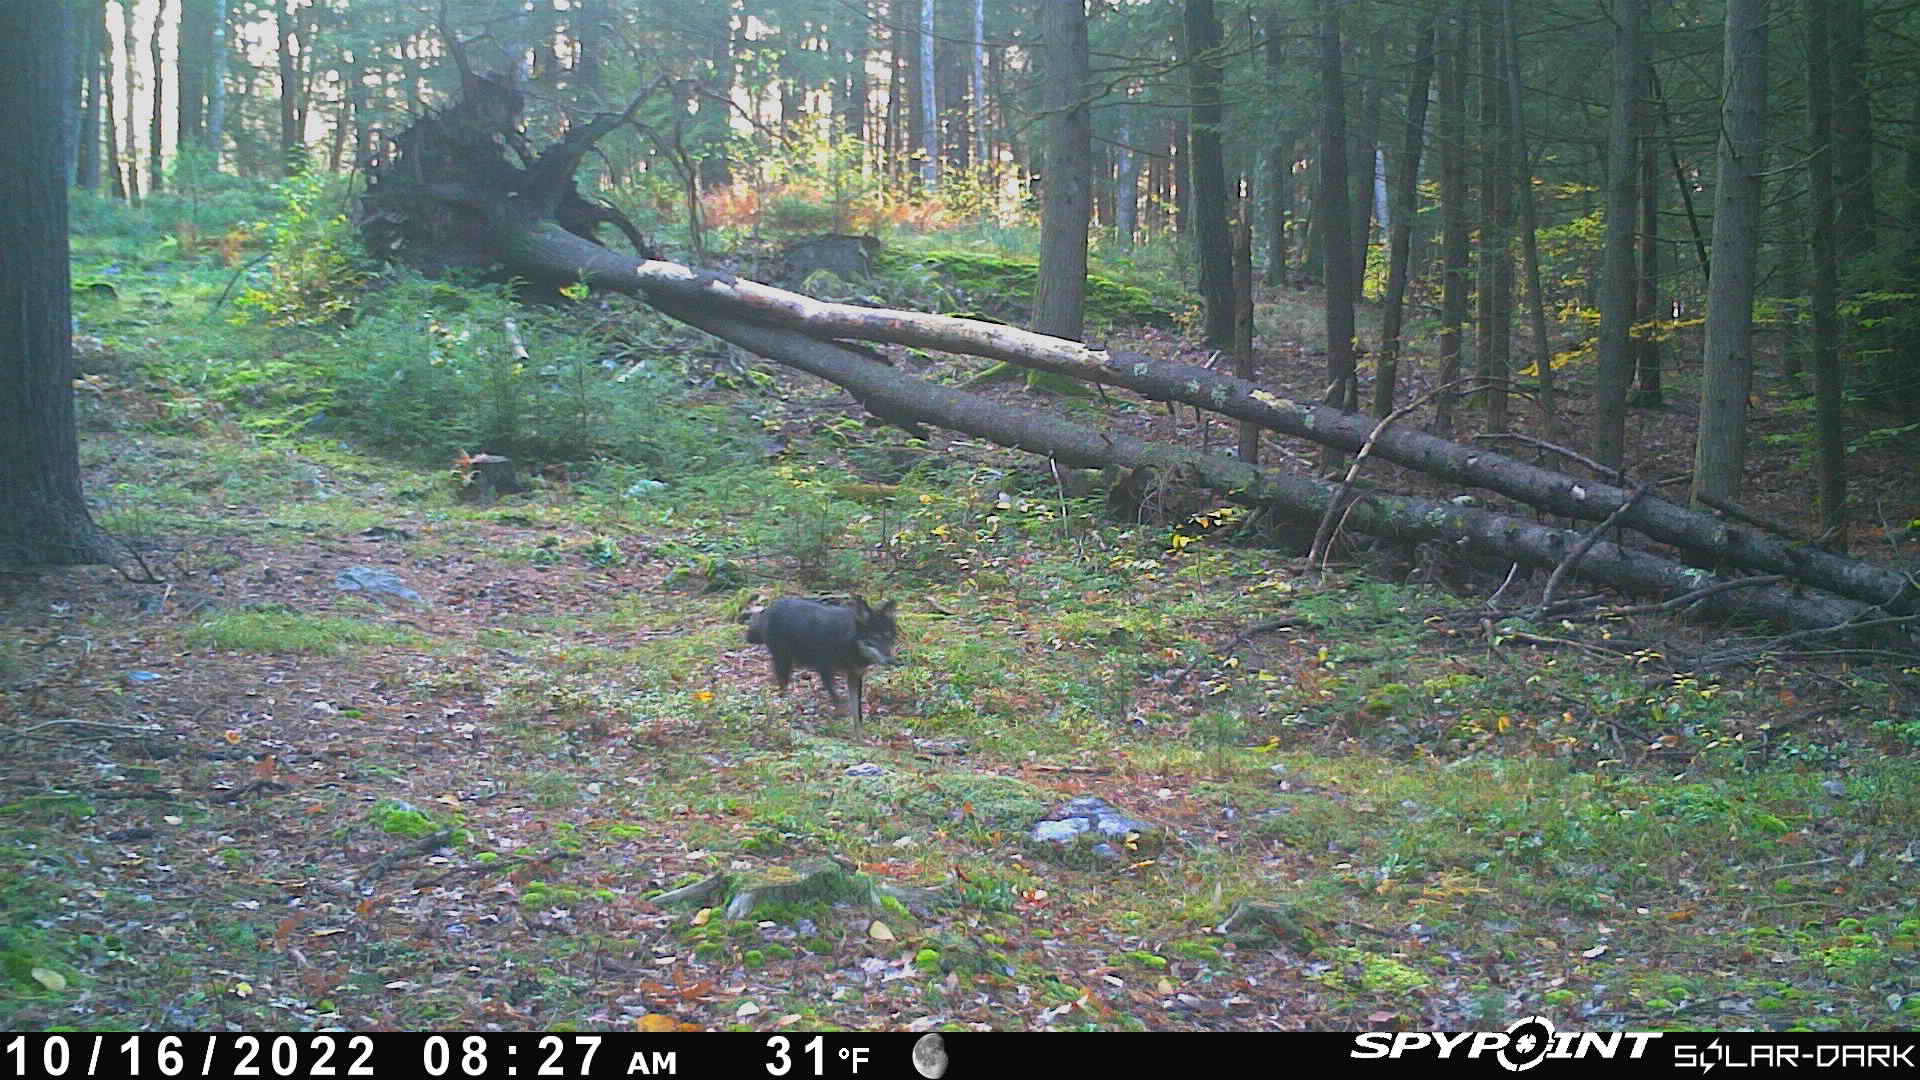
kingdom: Animalia
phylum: Chordata
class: Mammalia
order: Carnivora
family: Canidae
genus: Canis
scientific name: Canis latrans
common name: Coyote
